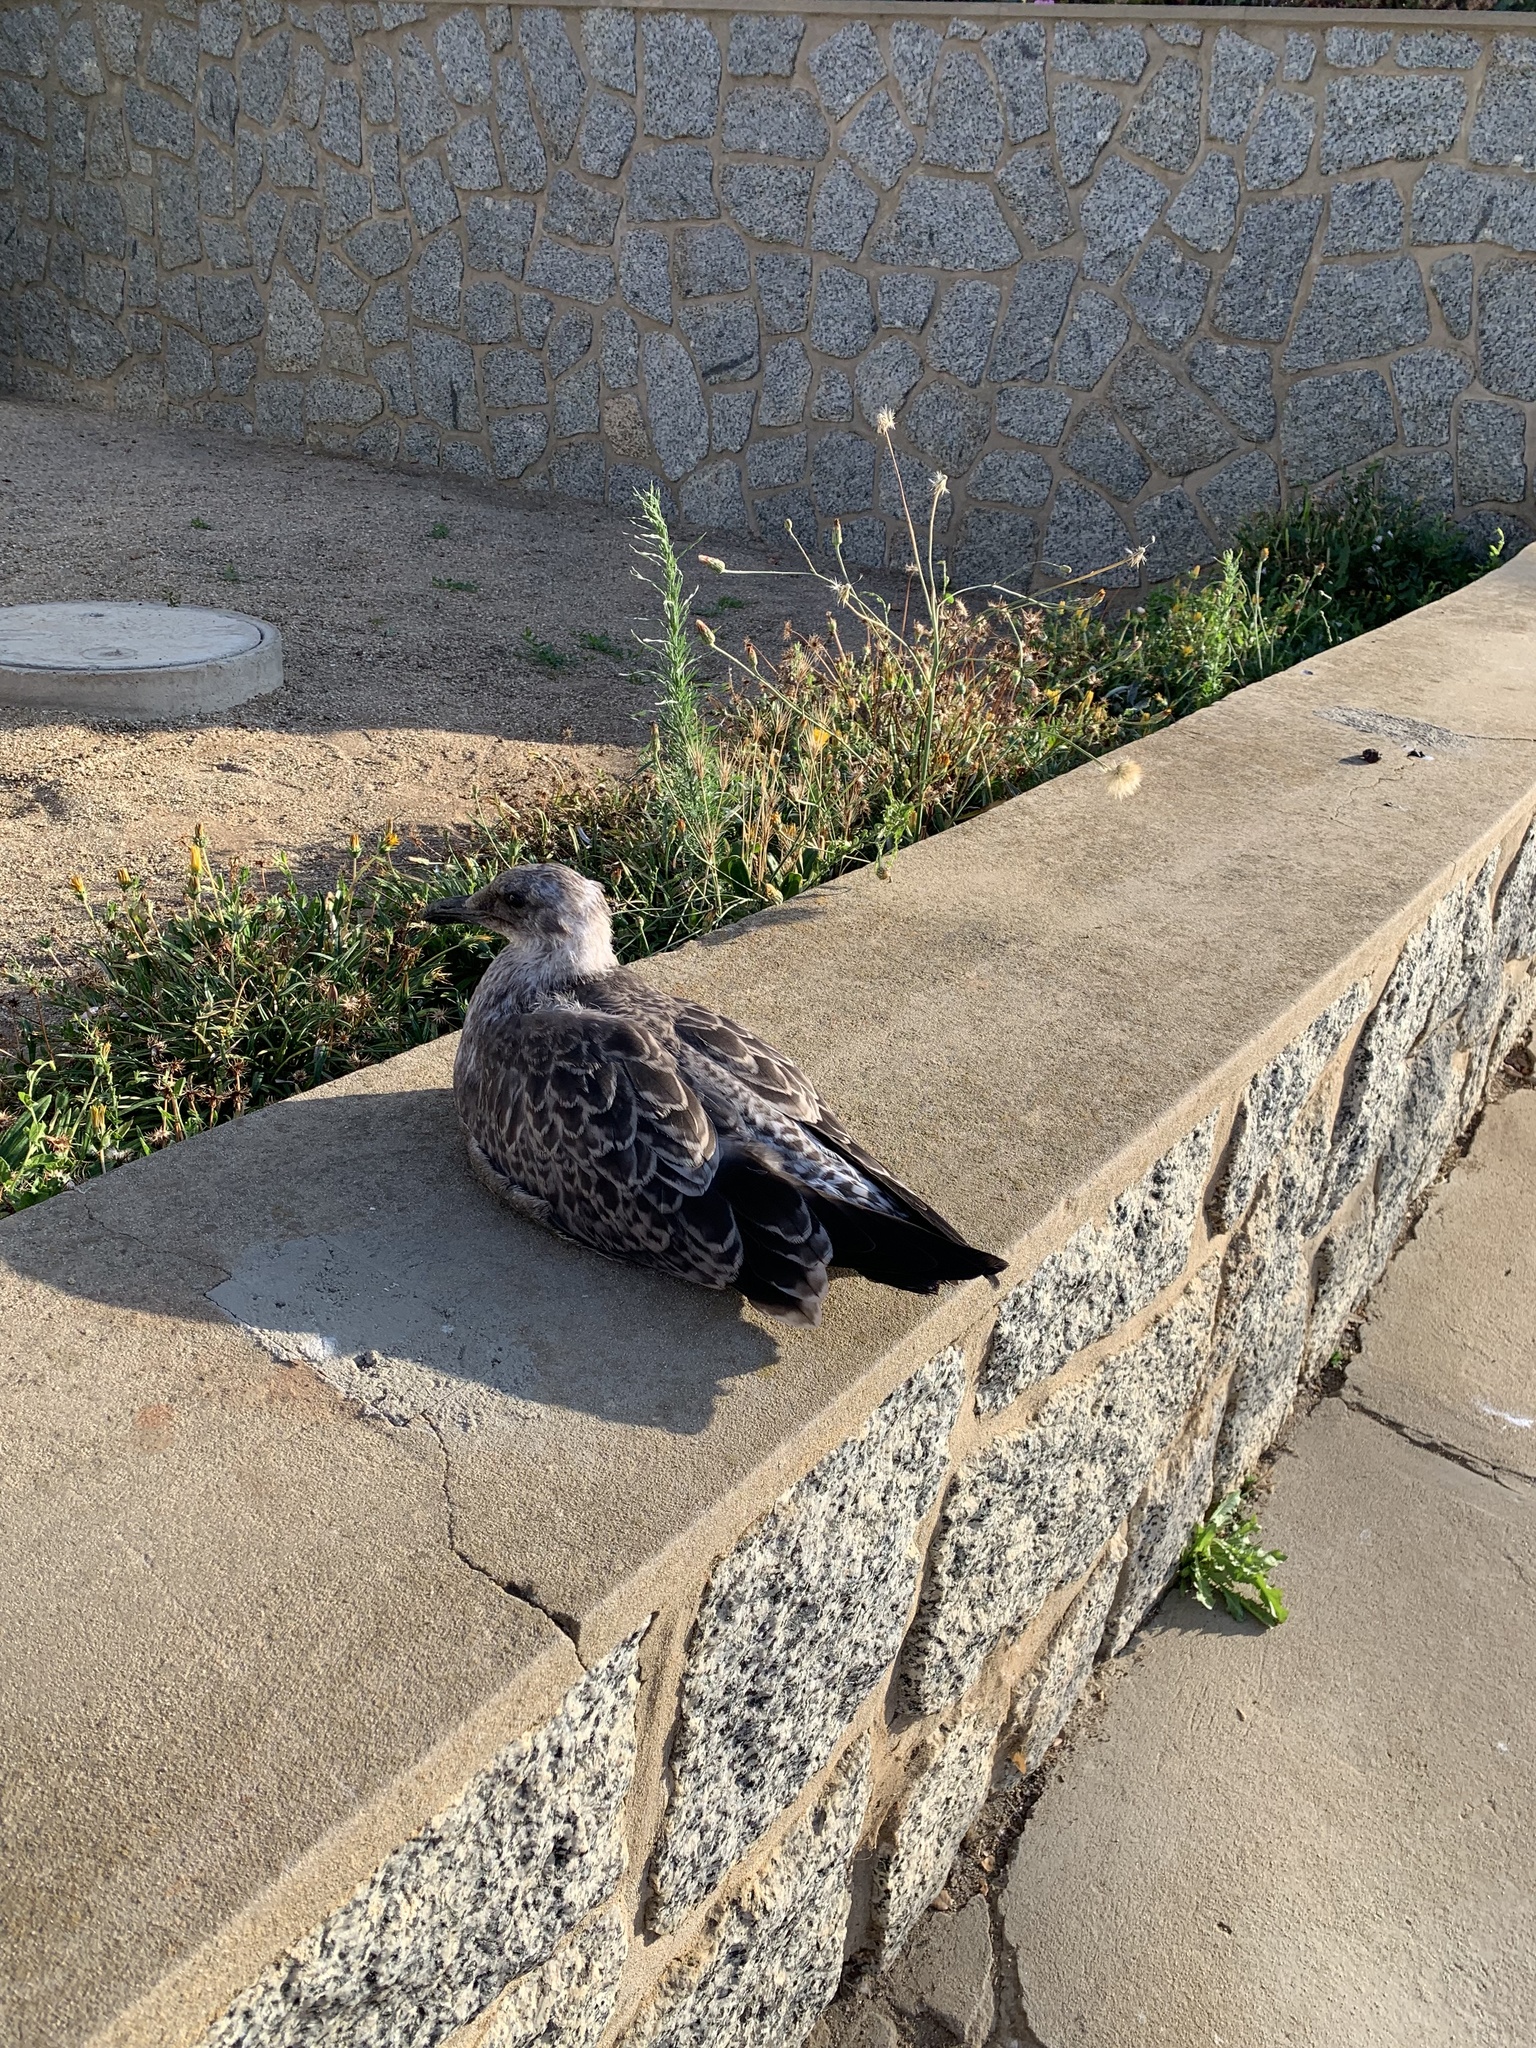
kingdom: Animalia
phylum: Chordata
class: Aves
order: Charadriiformes
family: Laridae
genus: Larus
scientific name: Larus dominicanus
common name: Kelp gull
